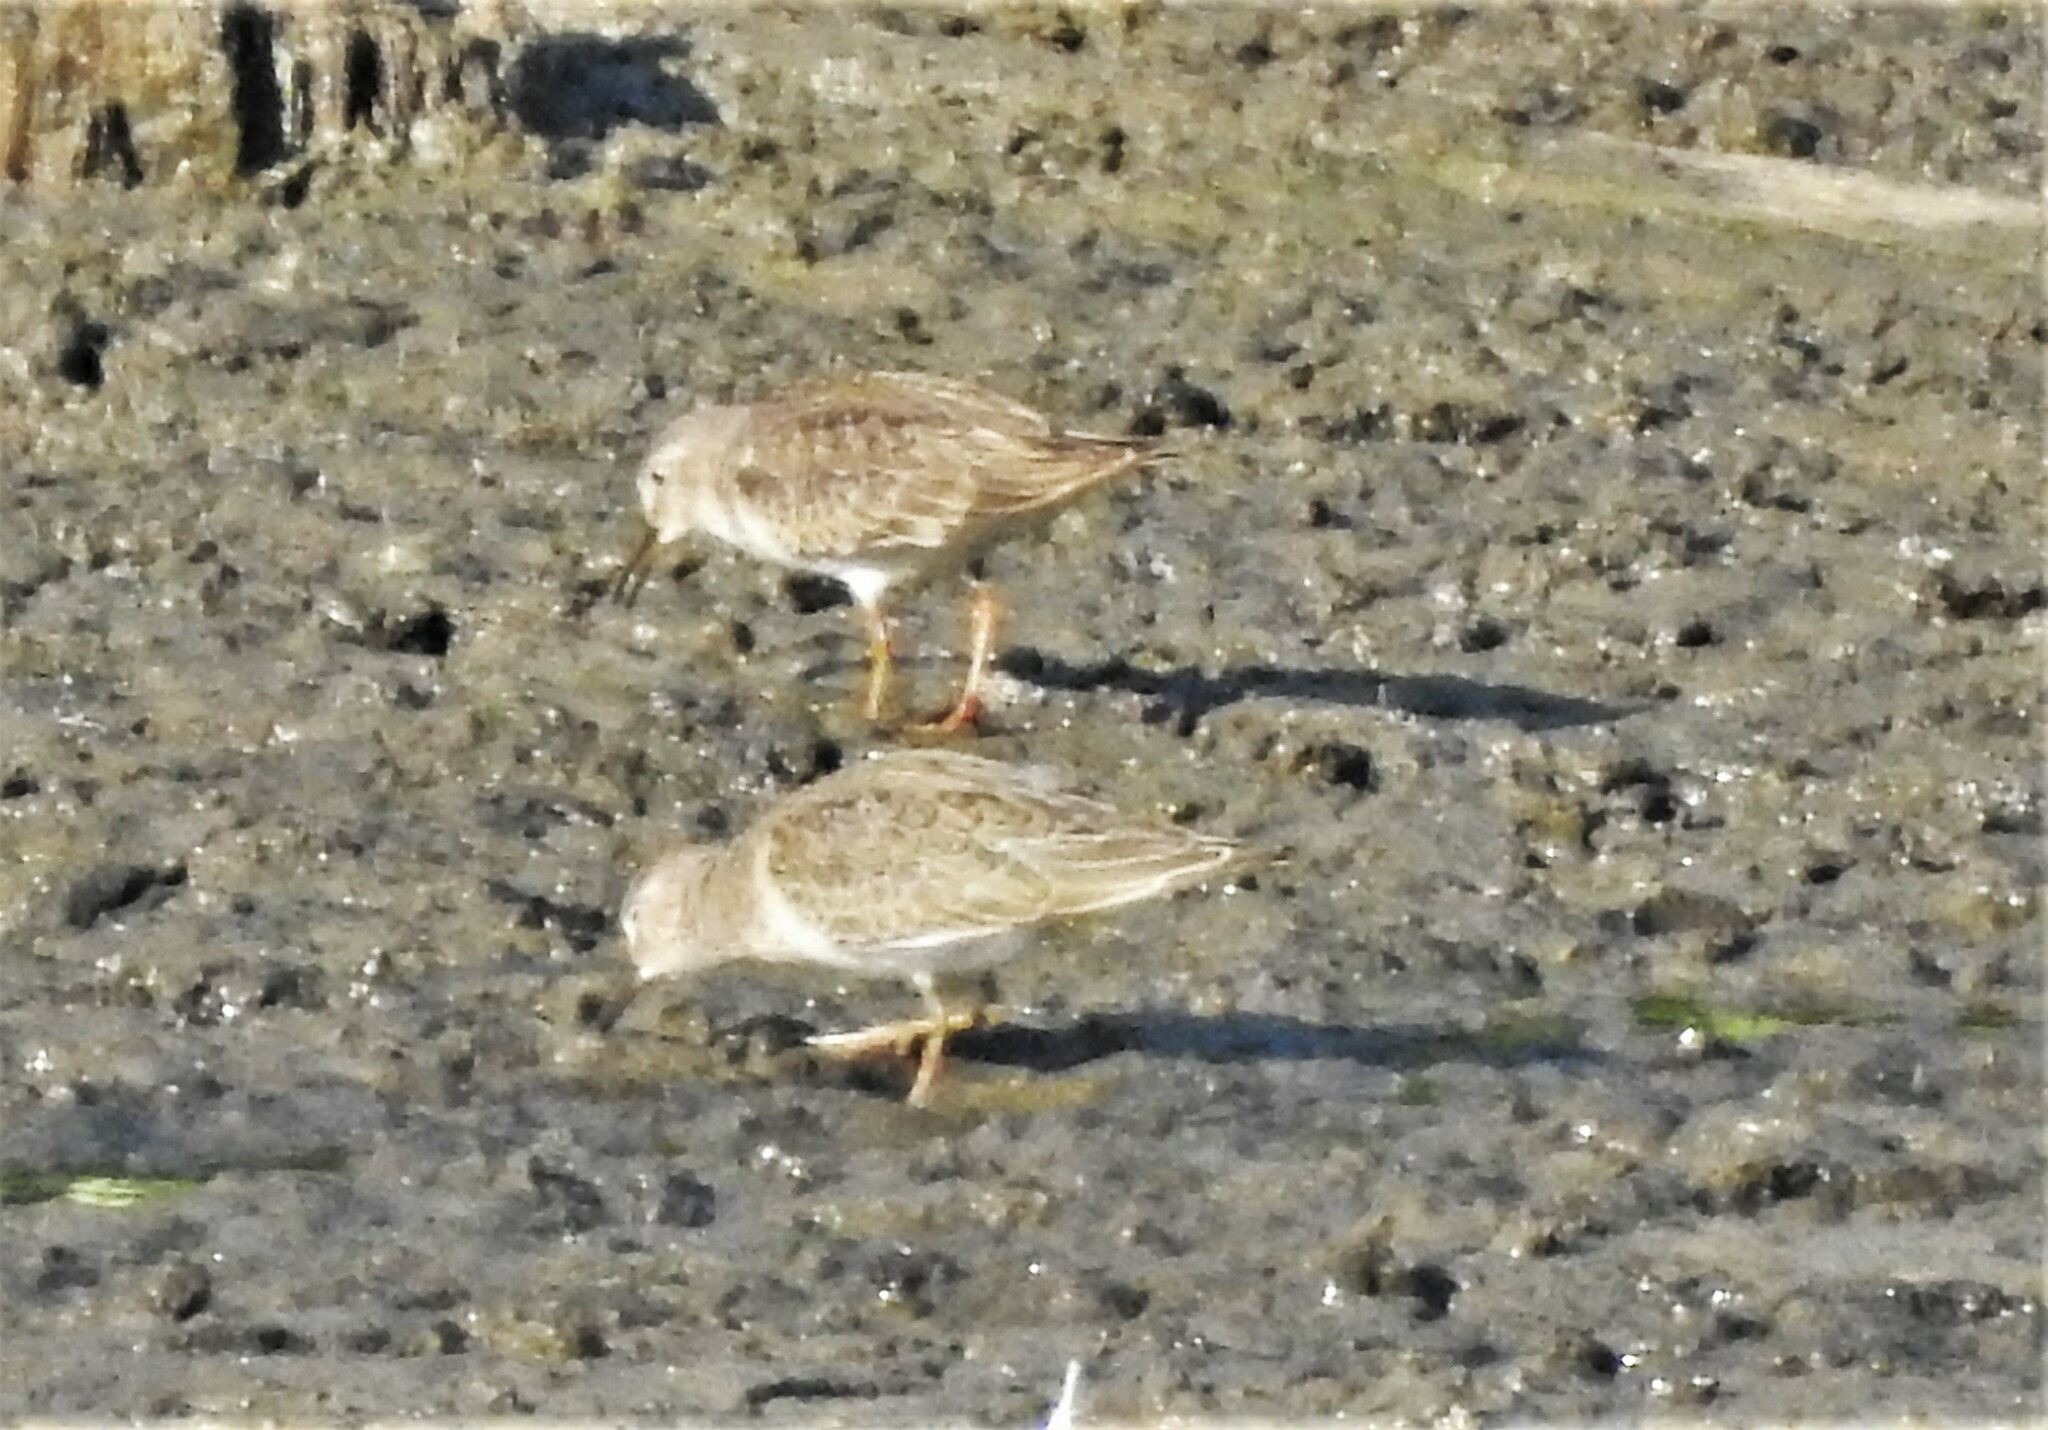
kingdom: Animalia
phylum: Chordata
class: Aves
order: Charadriiformes
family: Scolopacidae
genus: Calidris
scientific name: Calidris temminckii
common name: Temminck's stint
